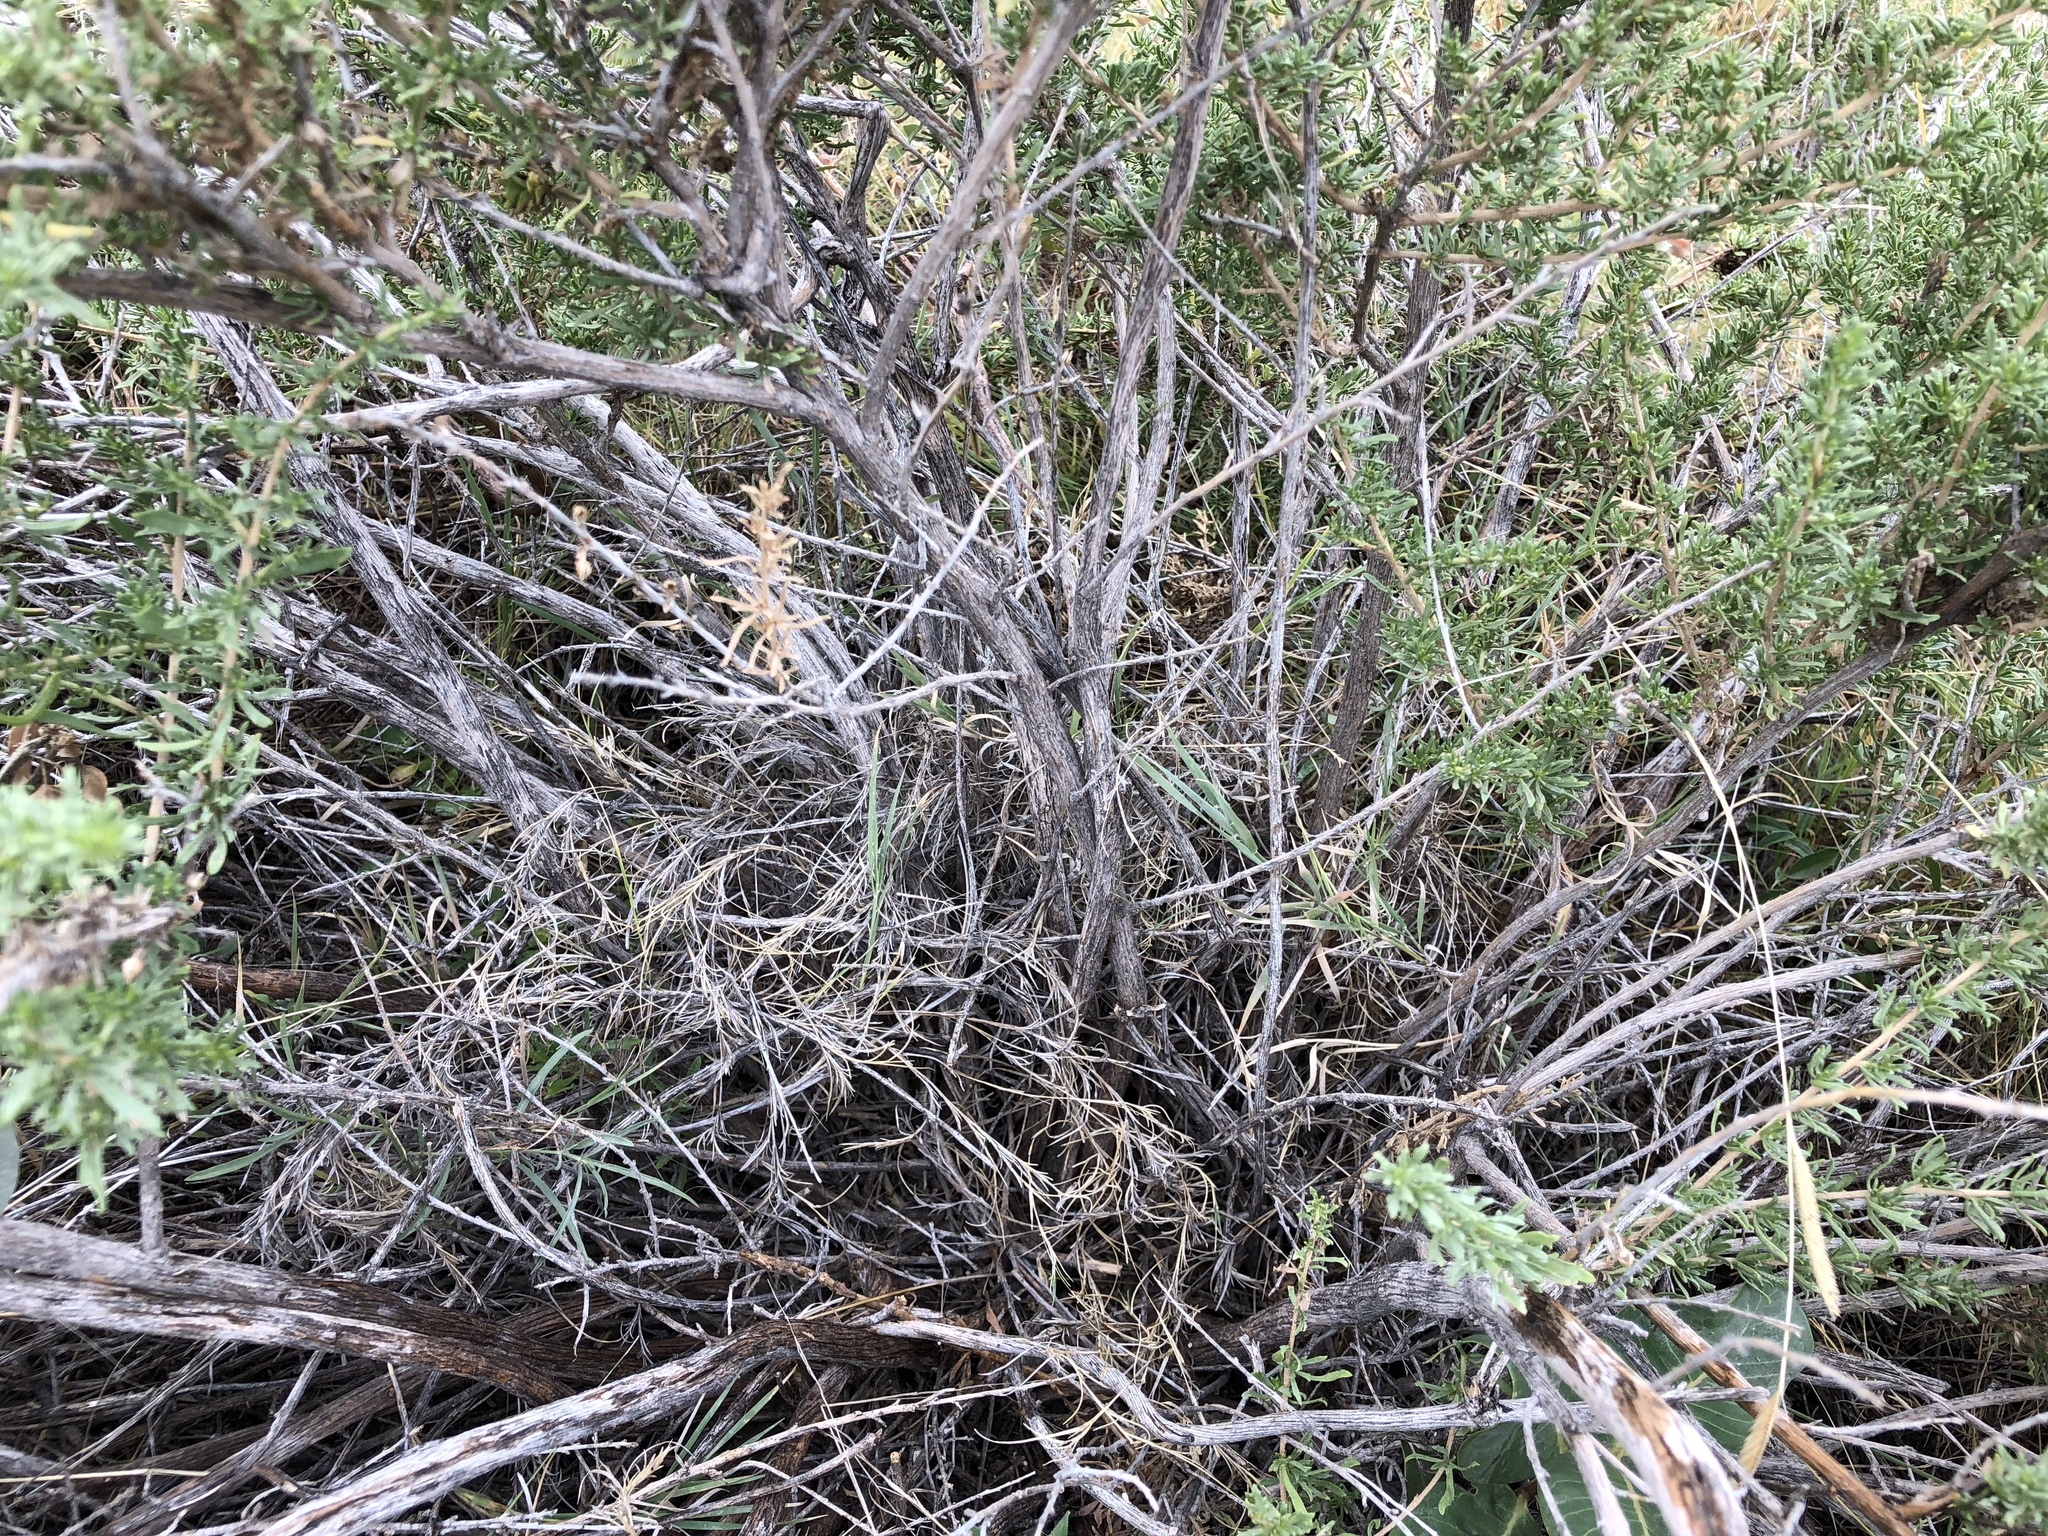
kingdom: Plantae
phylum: Tracheophyta
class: Magnoliopsida
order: Asterales
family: Asteraceae
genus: Baccharis
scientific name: Baccharis pteronioides
